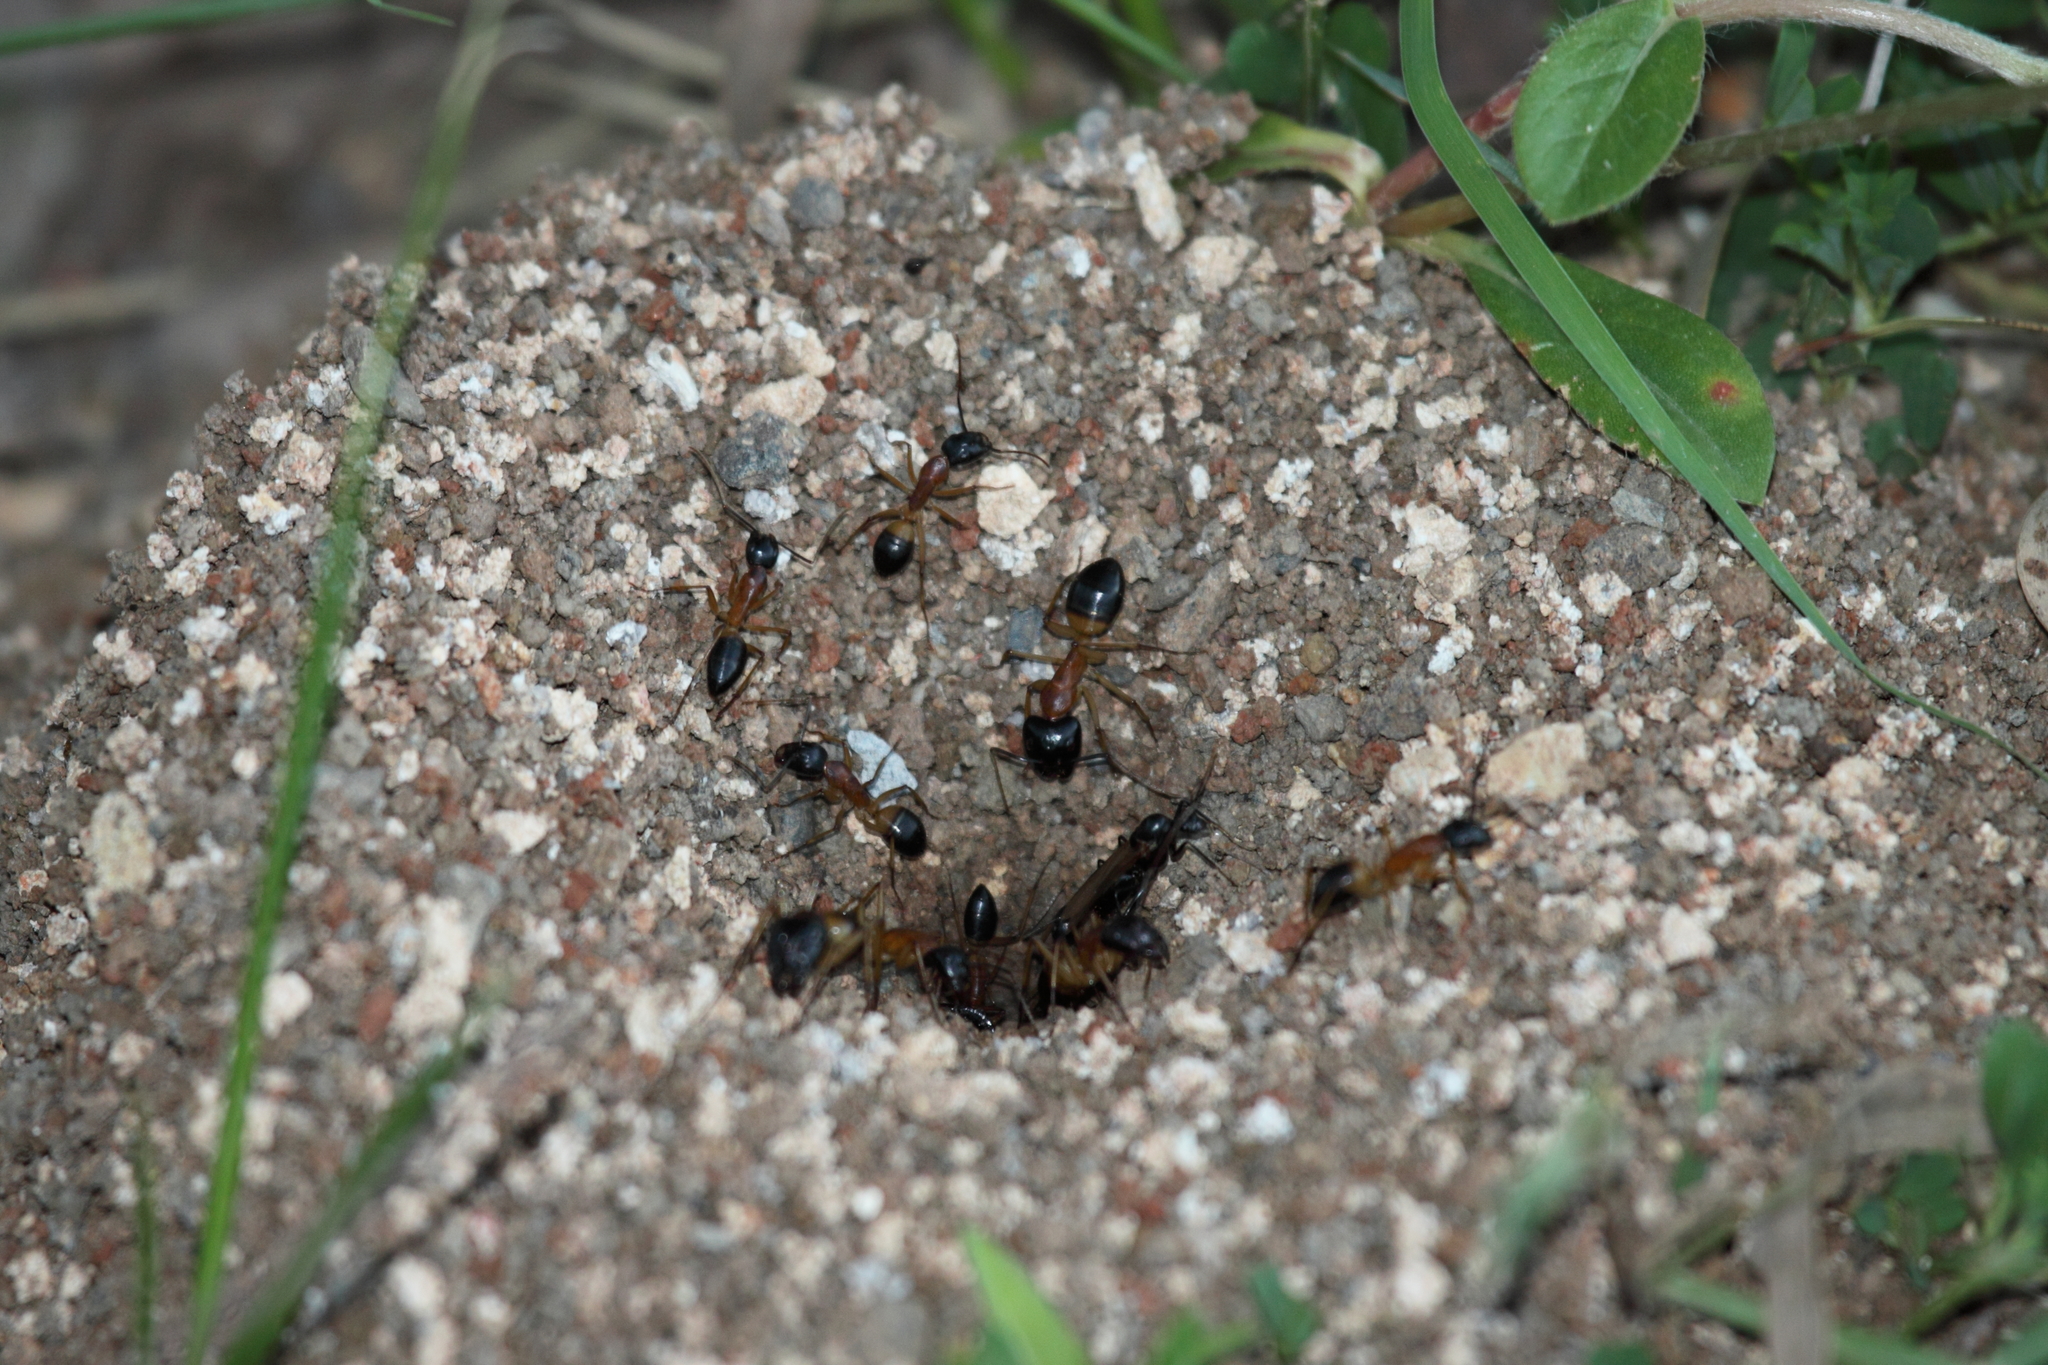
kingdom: Animalia
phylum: Arthropoda
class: Insecta
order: Hymenoptera
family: Formicidae
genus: Camponotus
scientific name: Camponotus consobrinus
